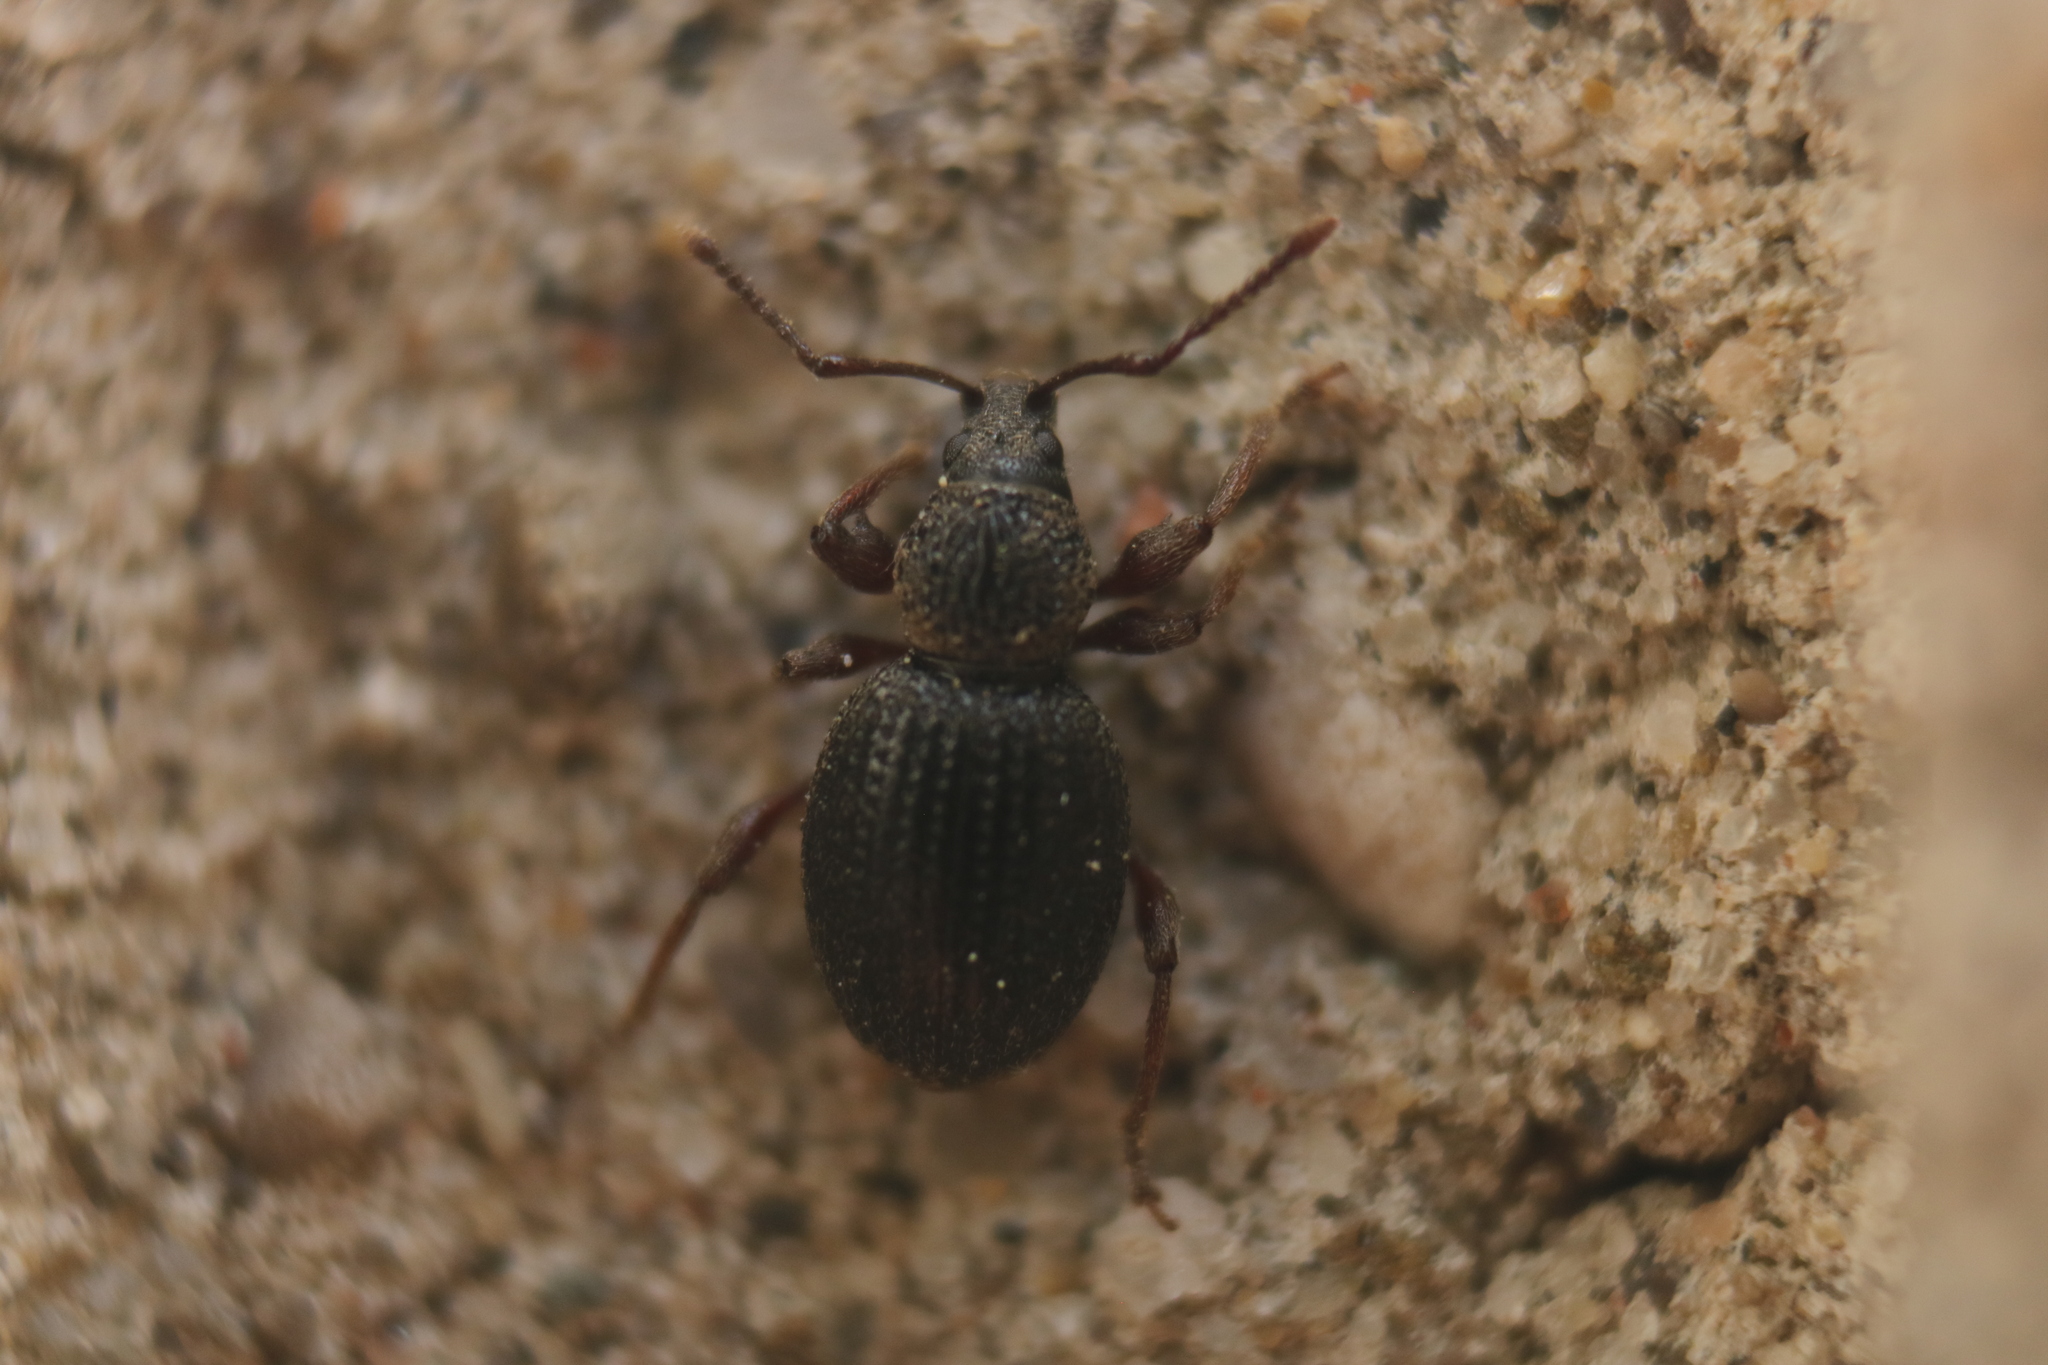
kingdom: Animalia
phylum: Arthropoda
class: Insecta
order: Coleoptera
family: Curculionidae
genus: Otiorhynchus
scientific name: Otiorhynchus ovatus
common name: Strawberry root weevil
